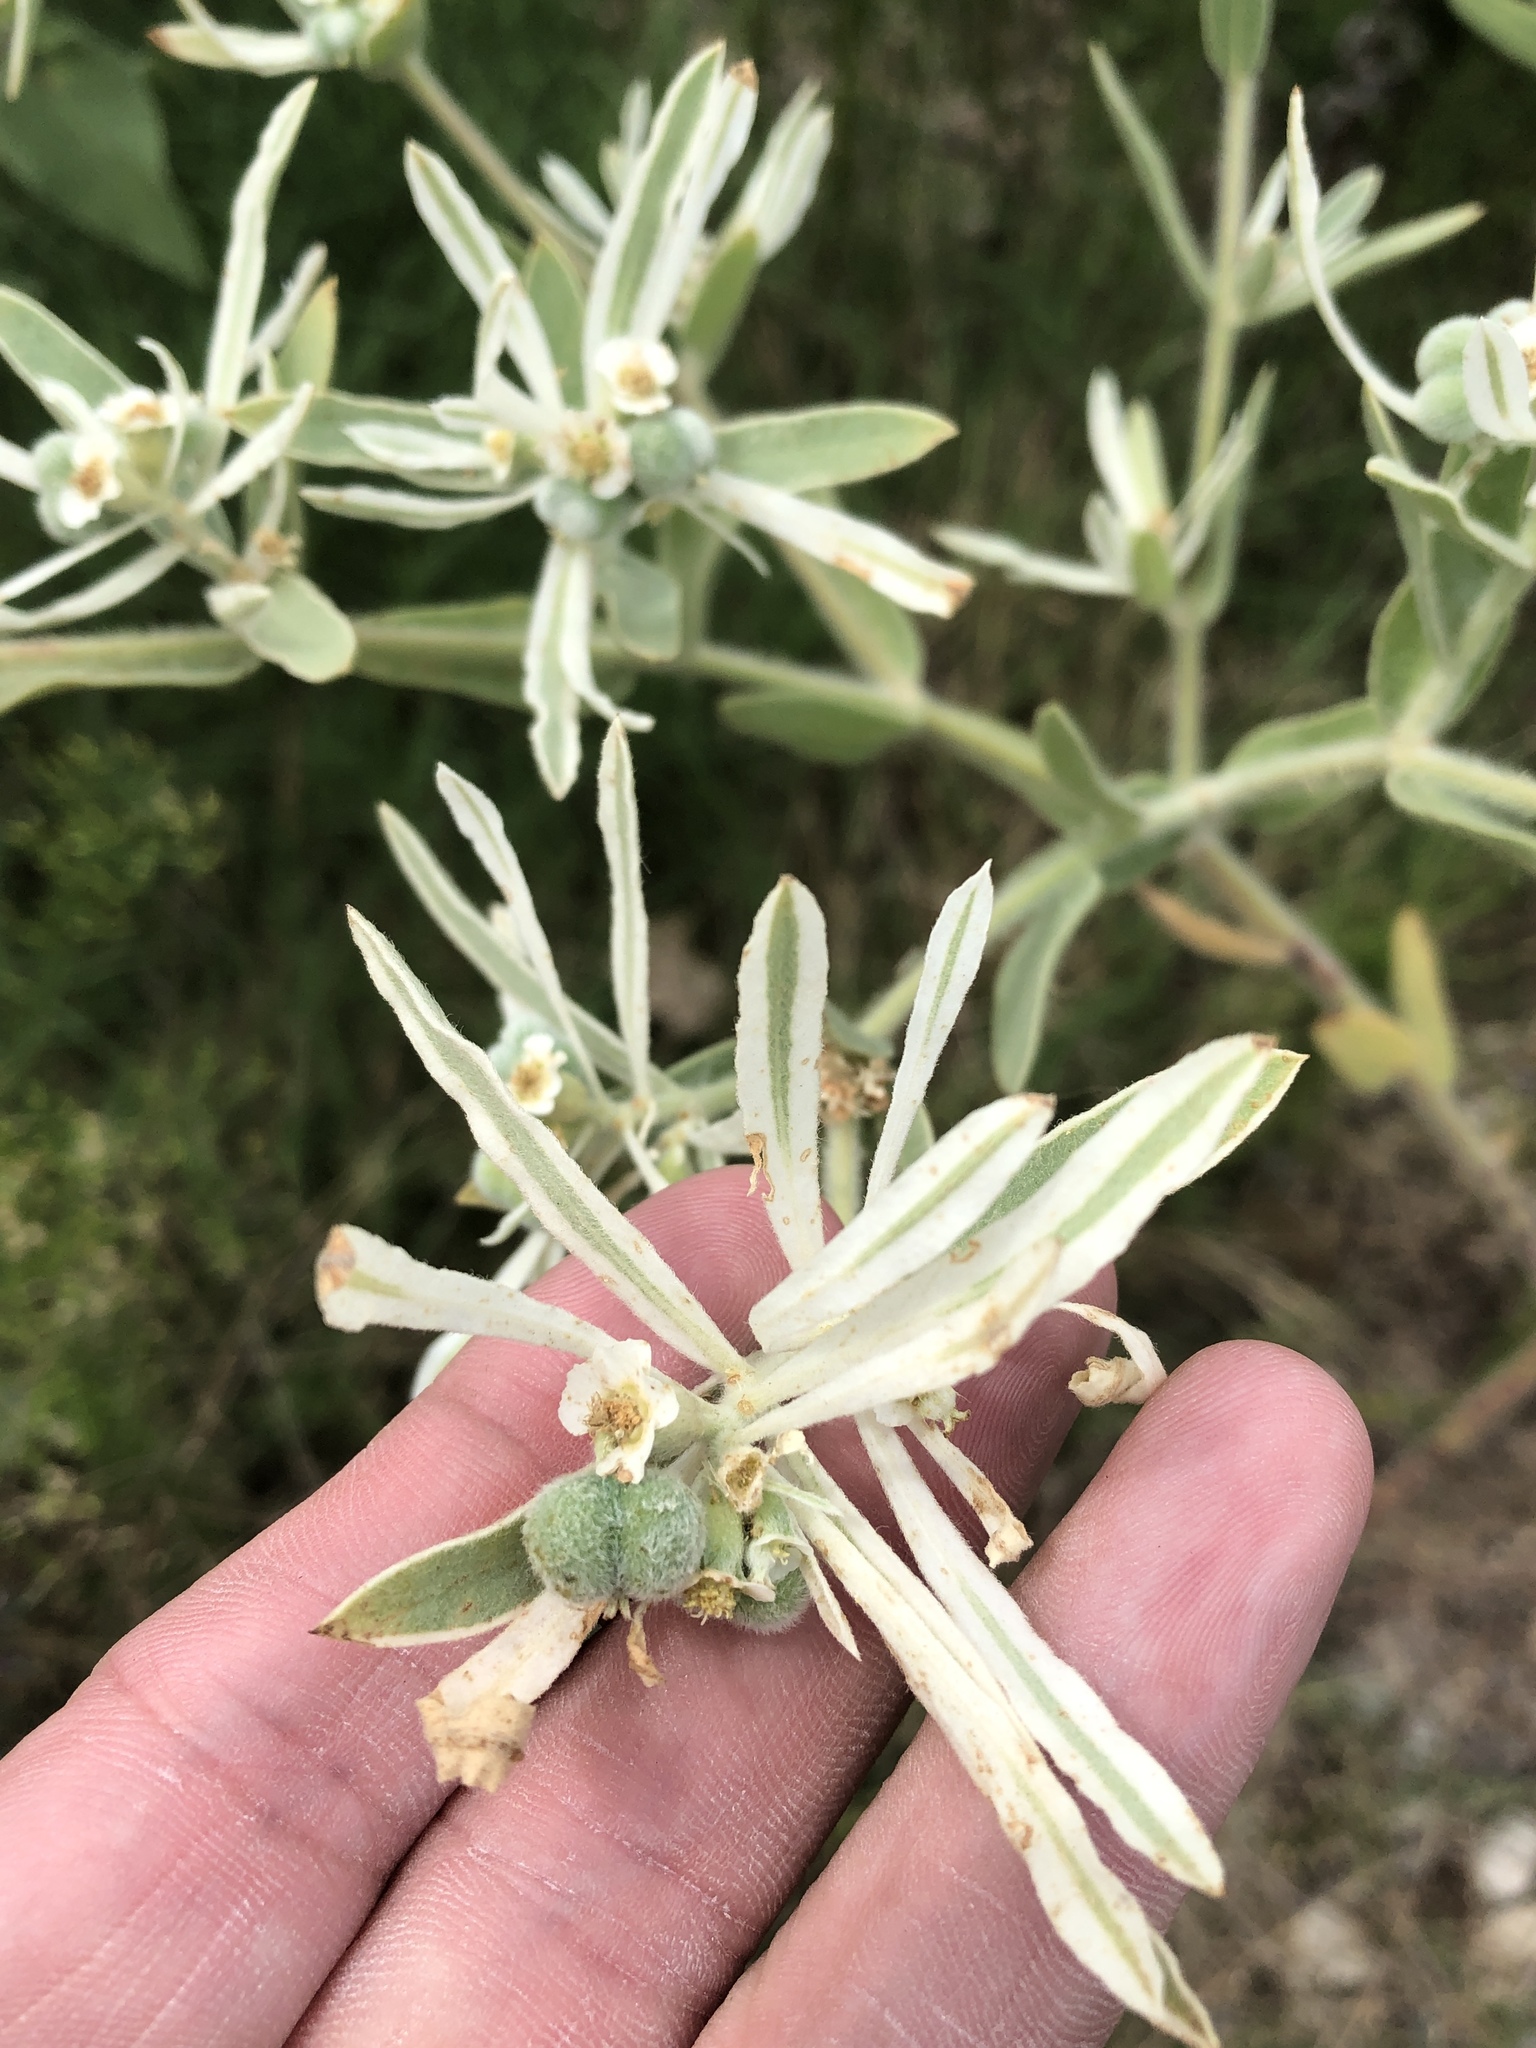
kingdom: Plantae
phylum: Tracheophyta
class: Magnoliopsida
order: Malpighiales
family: Euphorbiaceae
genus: Euphorbia
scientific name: Euphorbia bicolor
